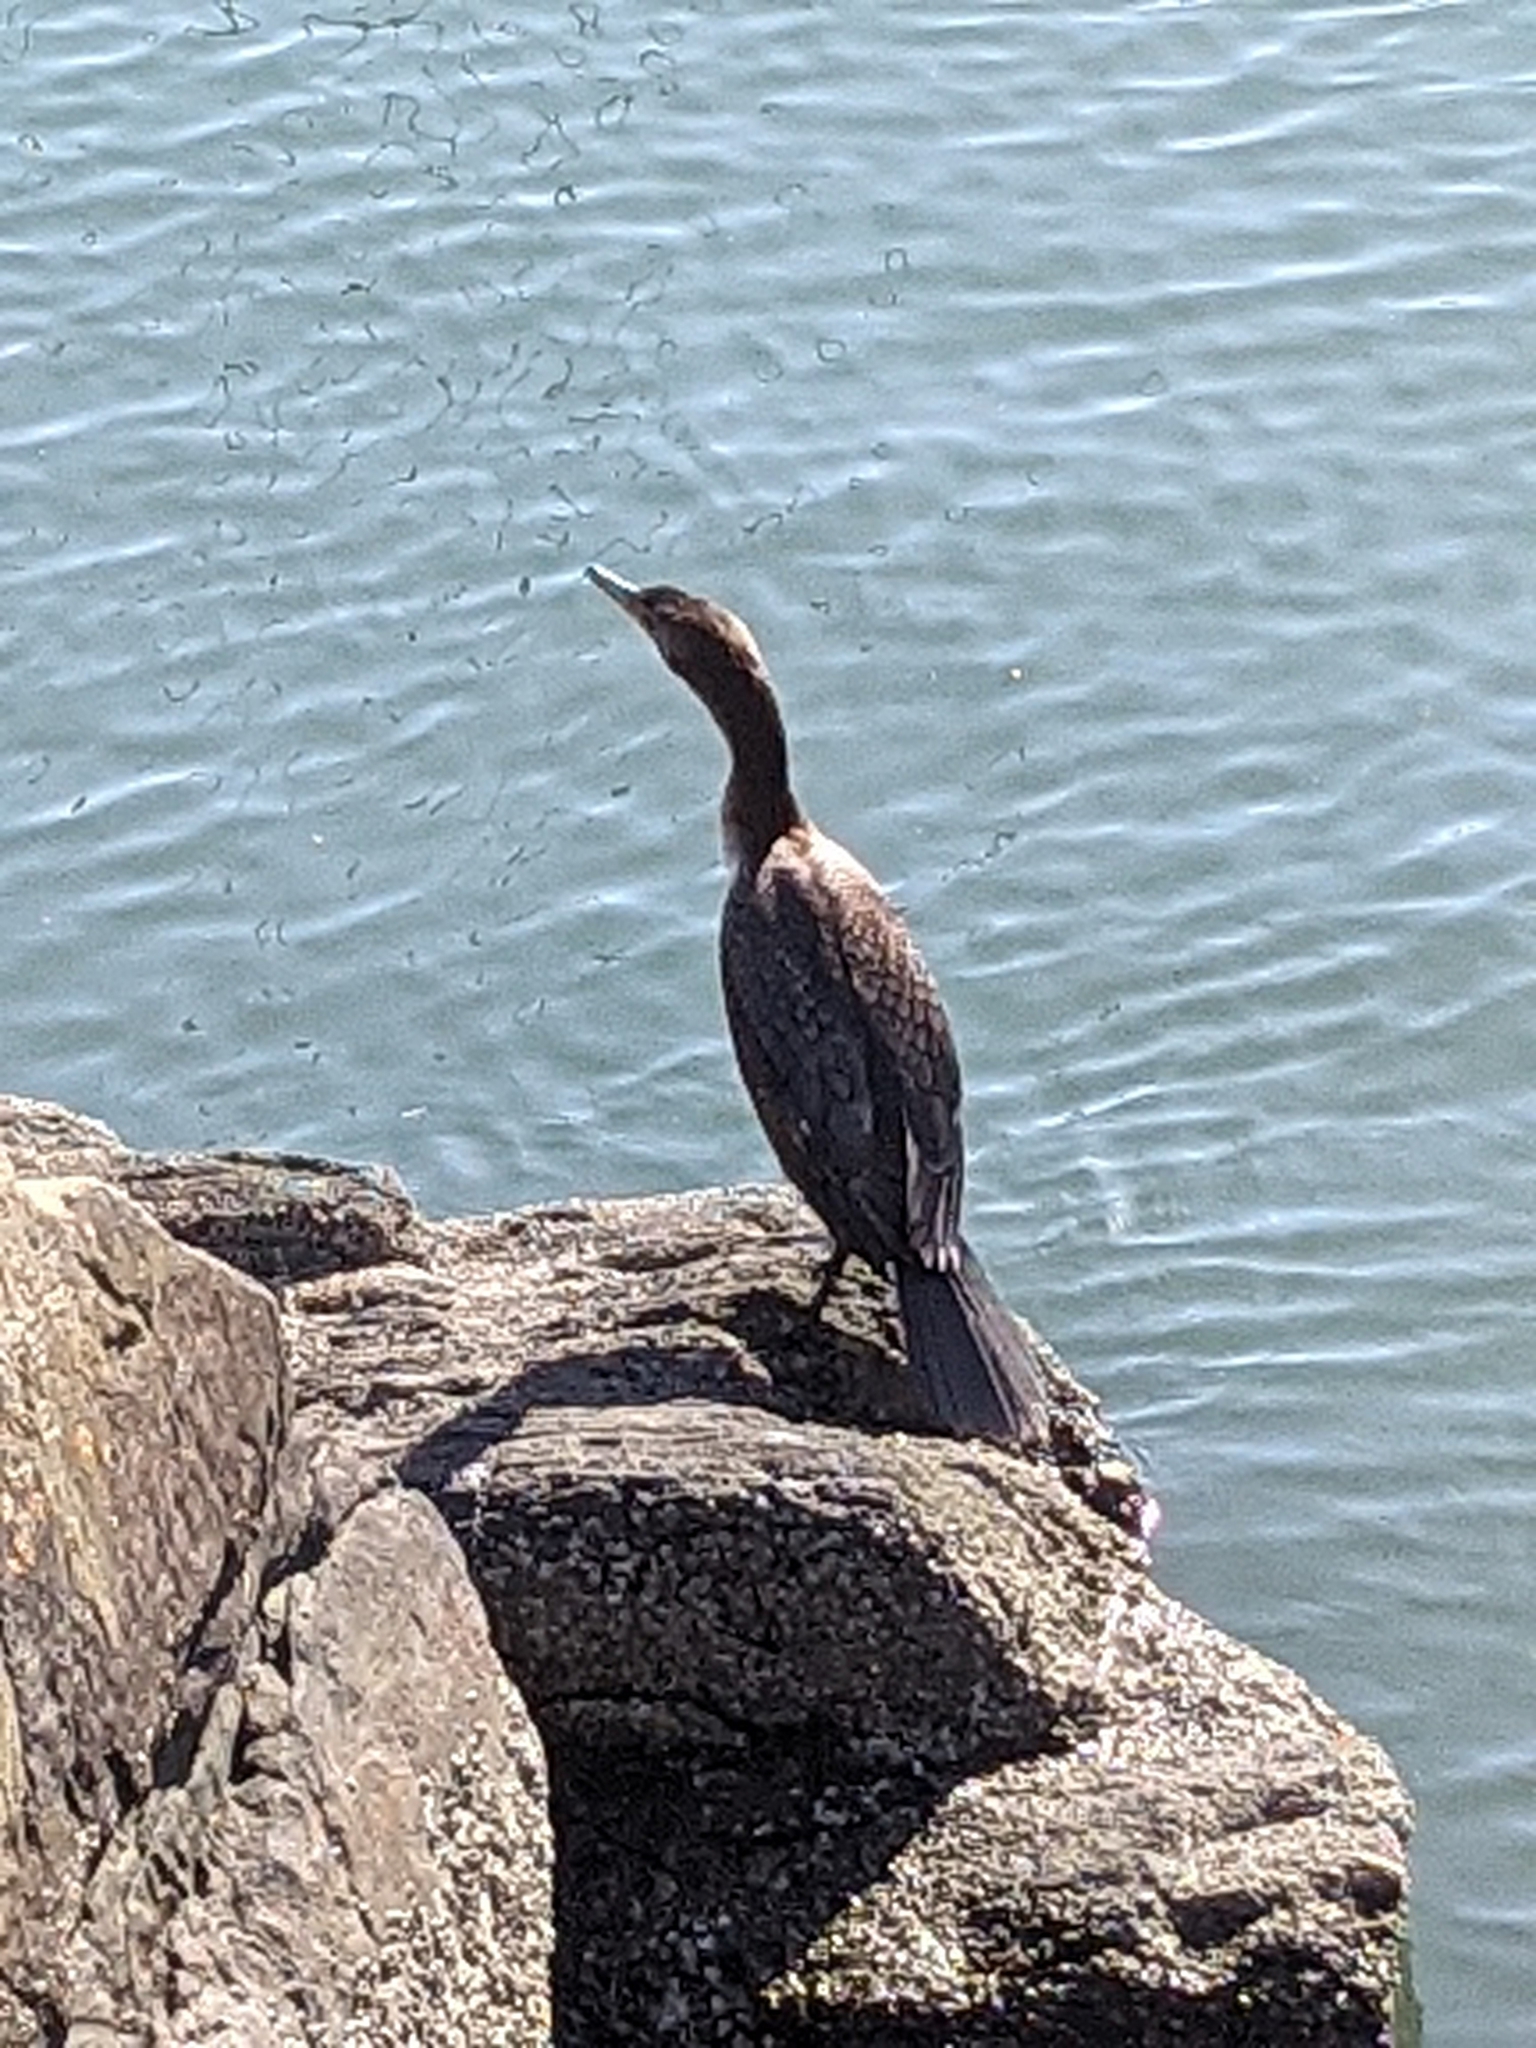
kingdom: Animalia
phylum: Chordata
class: Aves
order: Suliformes
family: Phalacrocoracidae
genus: Phalacrocorax
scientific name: Phalacrocorax auritus
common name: Double-crested cormorant
